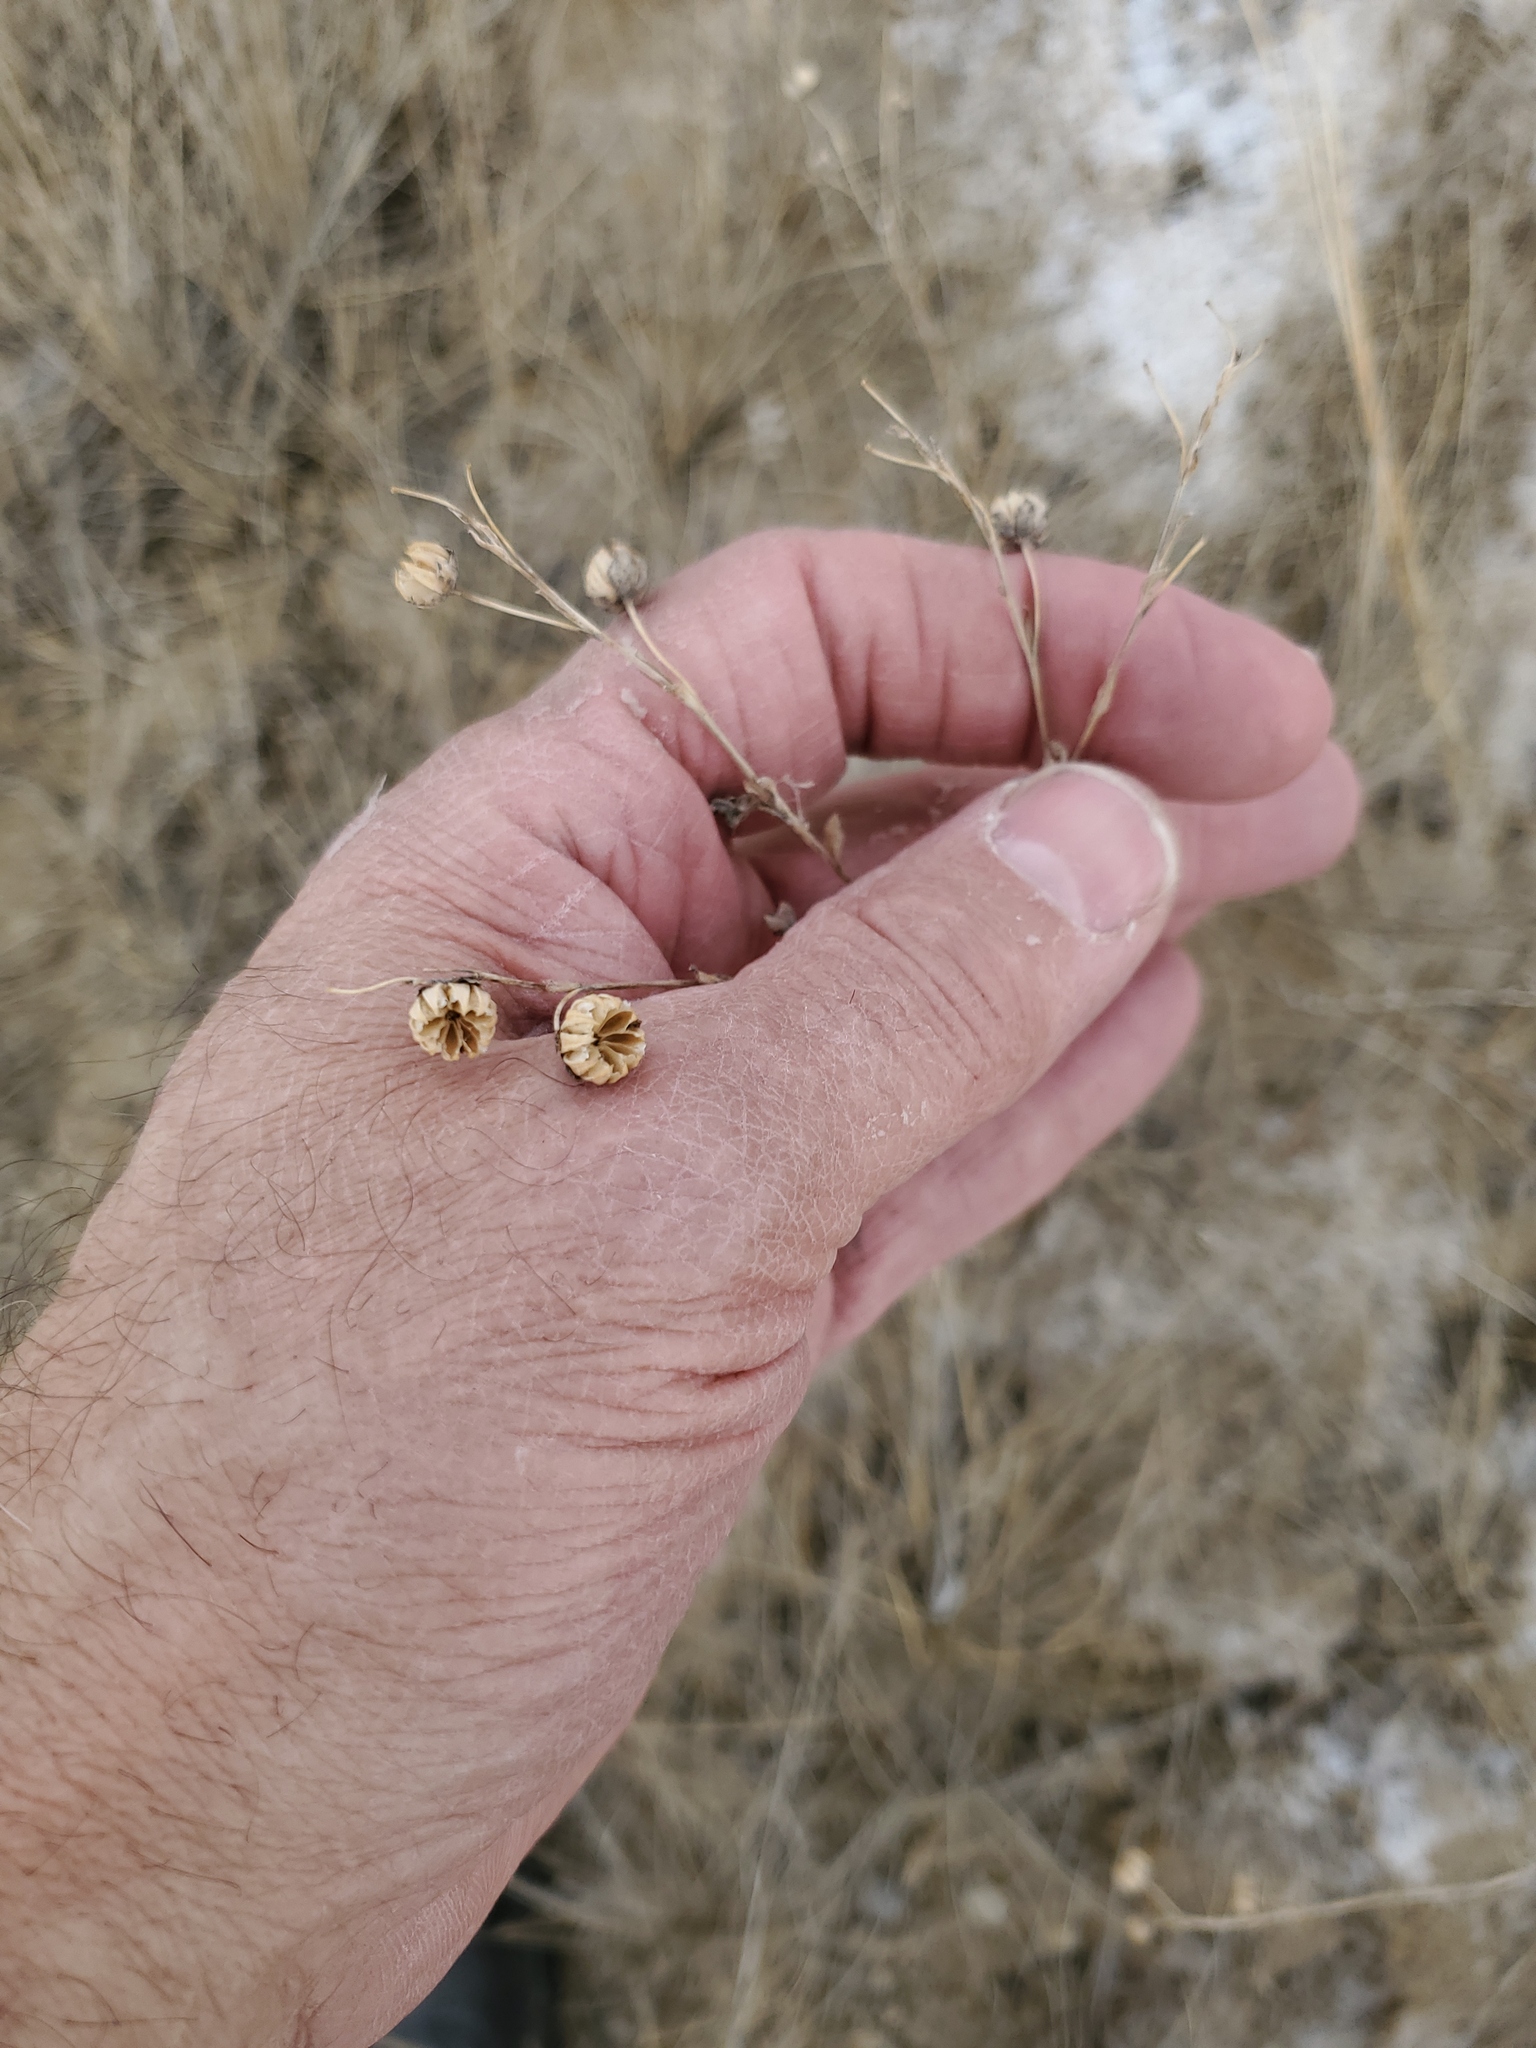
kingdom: Plantae
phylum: Tracheophyta
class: Magnoliopsida
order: Malpighiales
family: Linaceae
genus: Linum
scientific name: Linum lewisii
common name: Prairie flax
